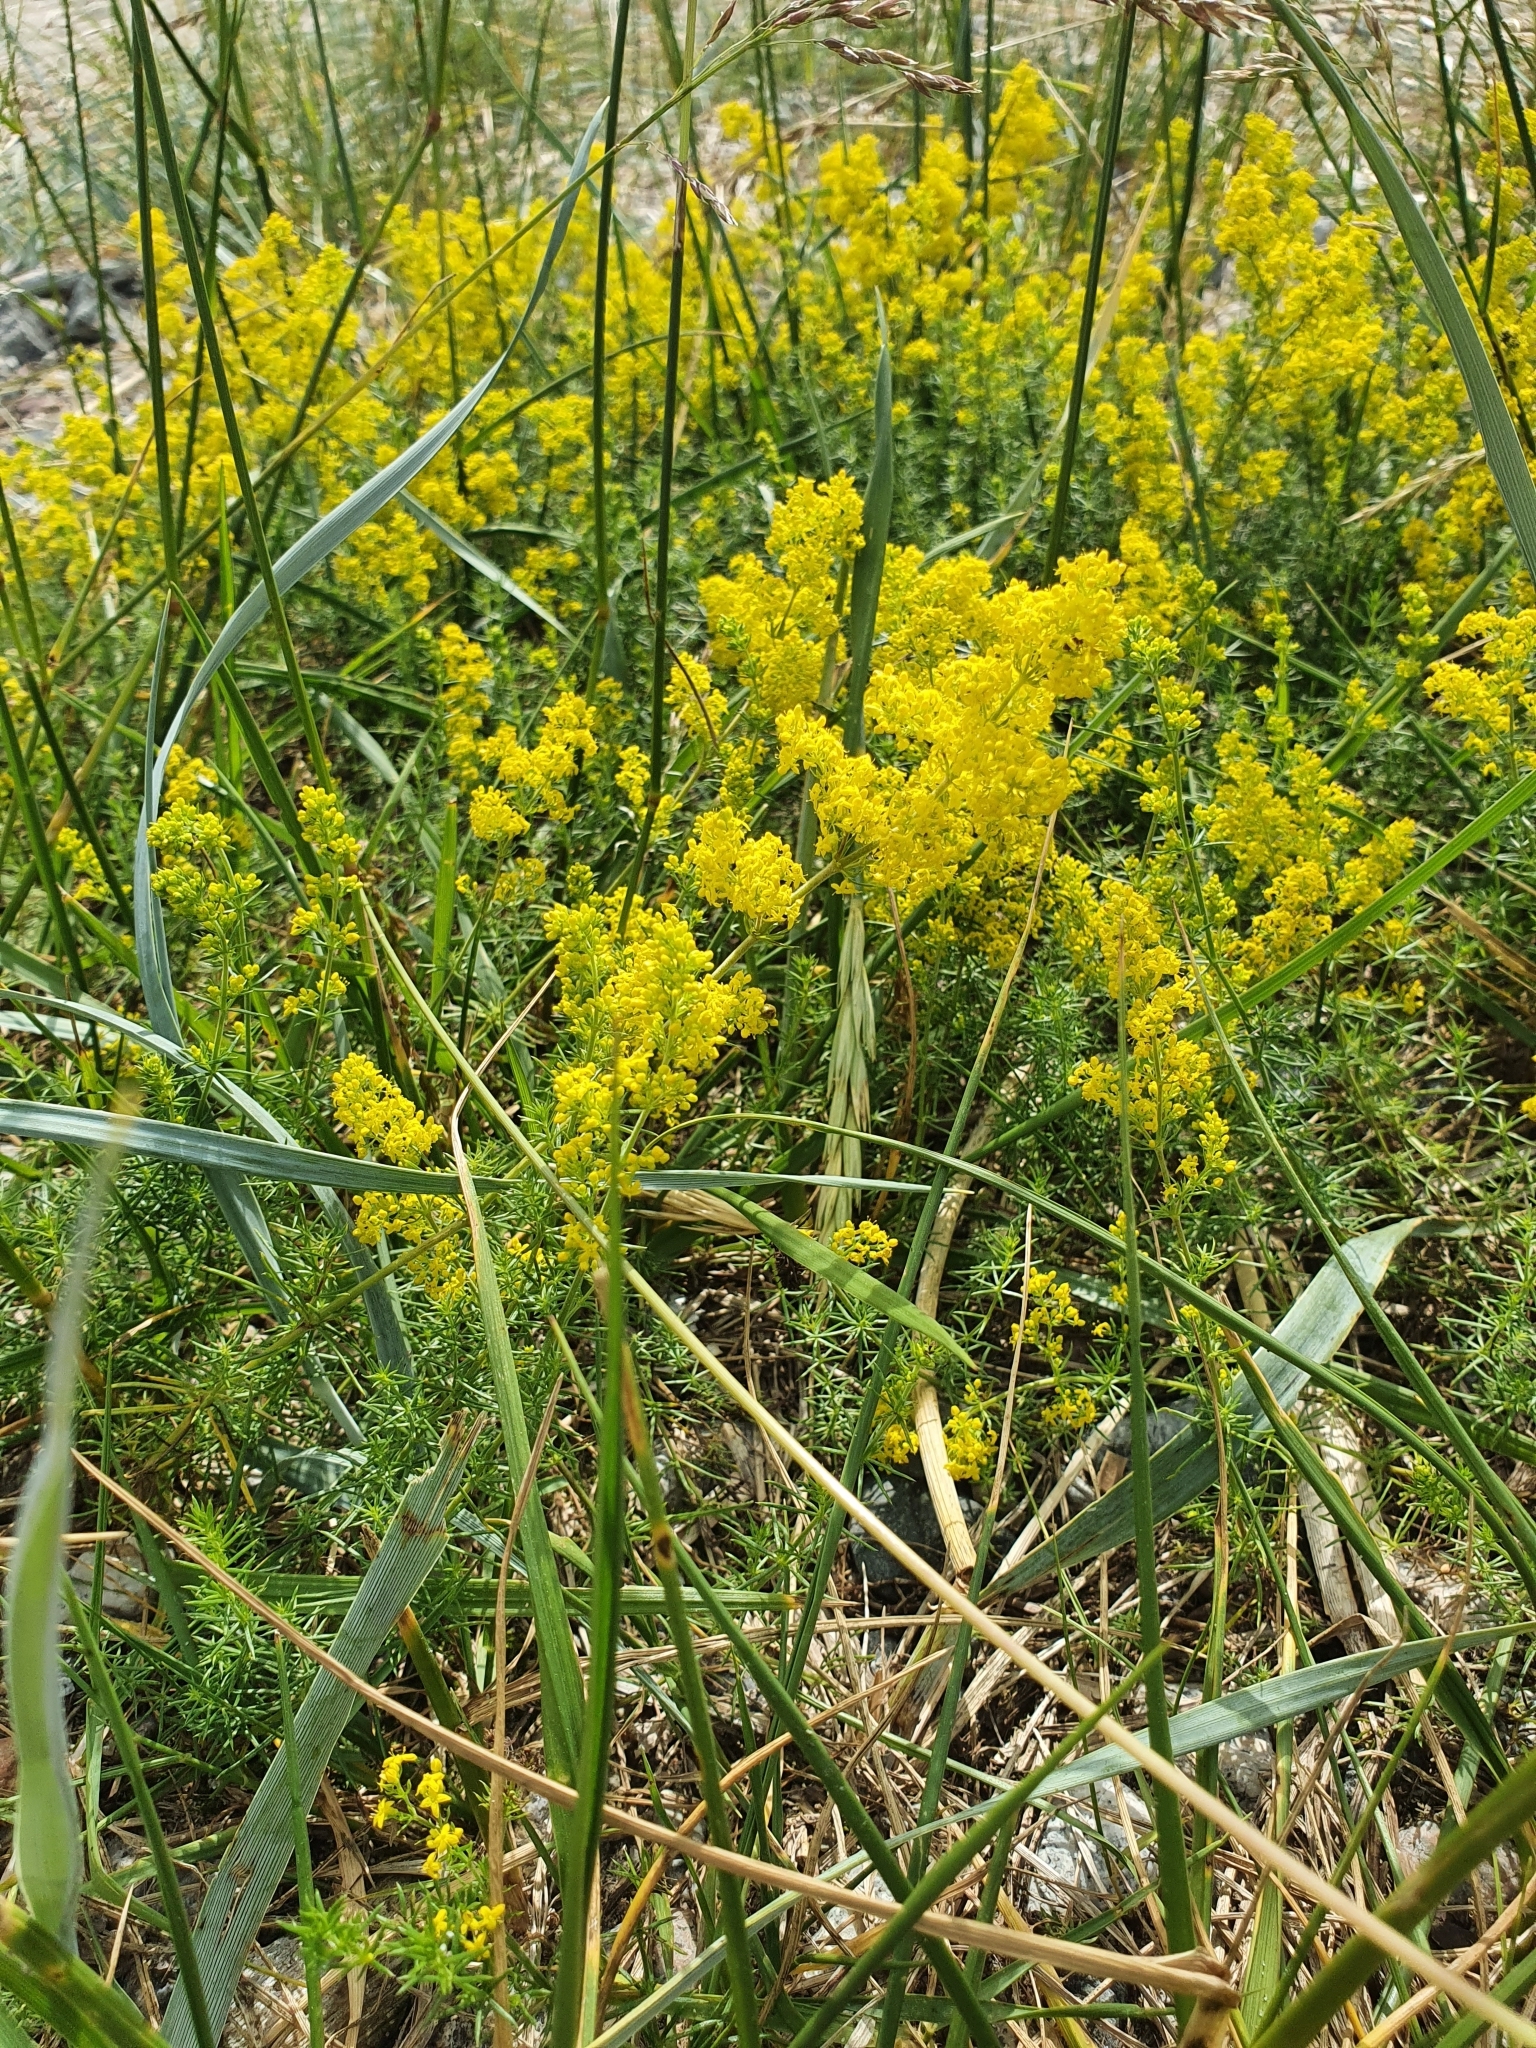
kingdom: Plantae
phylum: Tracheophyta
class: Magnoliopsida
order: Gentianales
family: Rubiaceae
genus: Galium
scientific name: Galium verum
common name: Lady's bedstraw
